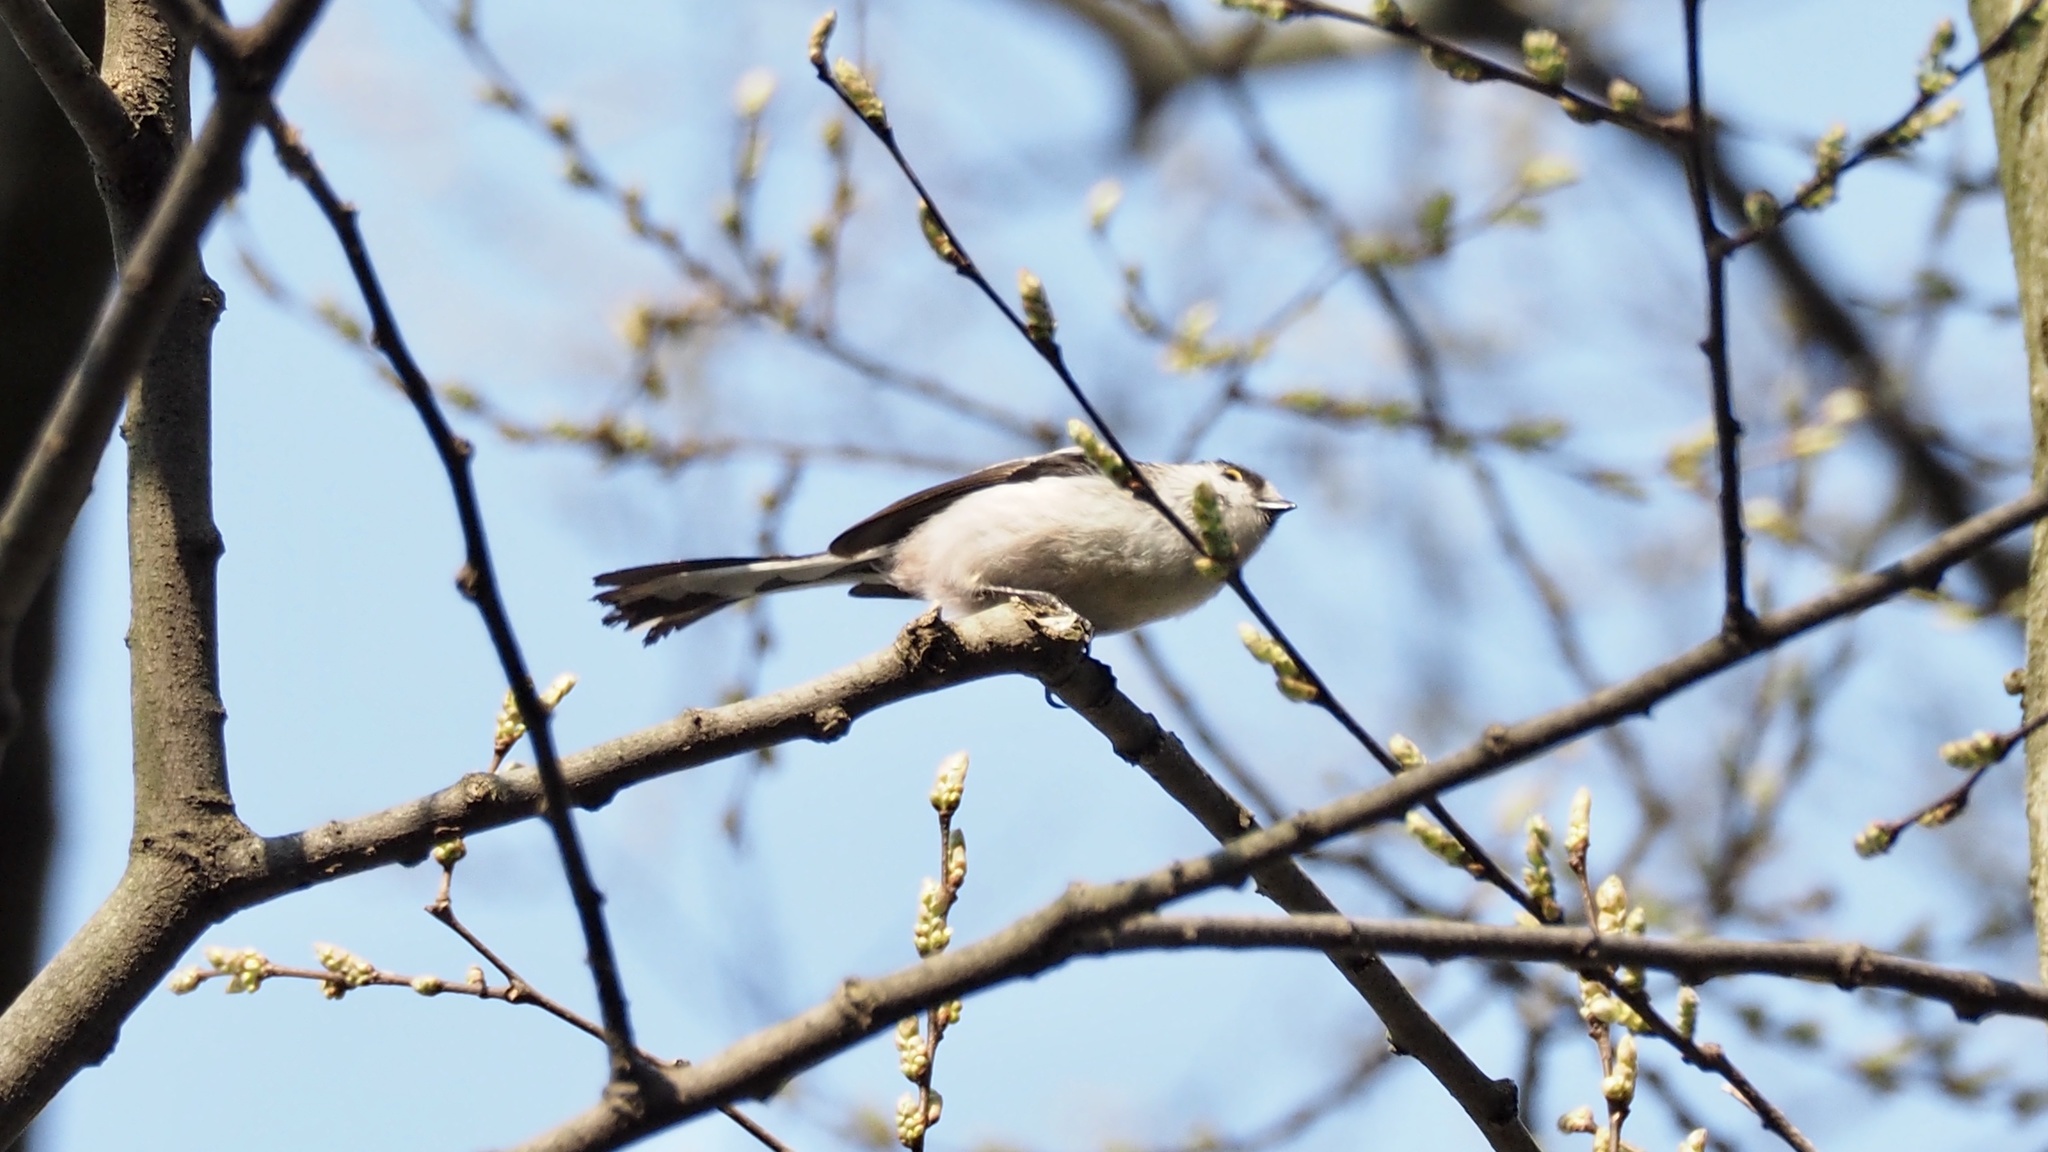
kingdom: Animalia
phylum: Chordata
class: Aves
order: Passeriformes
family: Aegithalidae
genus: Aegithalos
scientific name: Aegithalos caudatus
